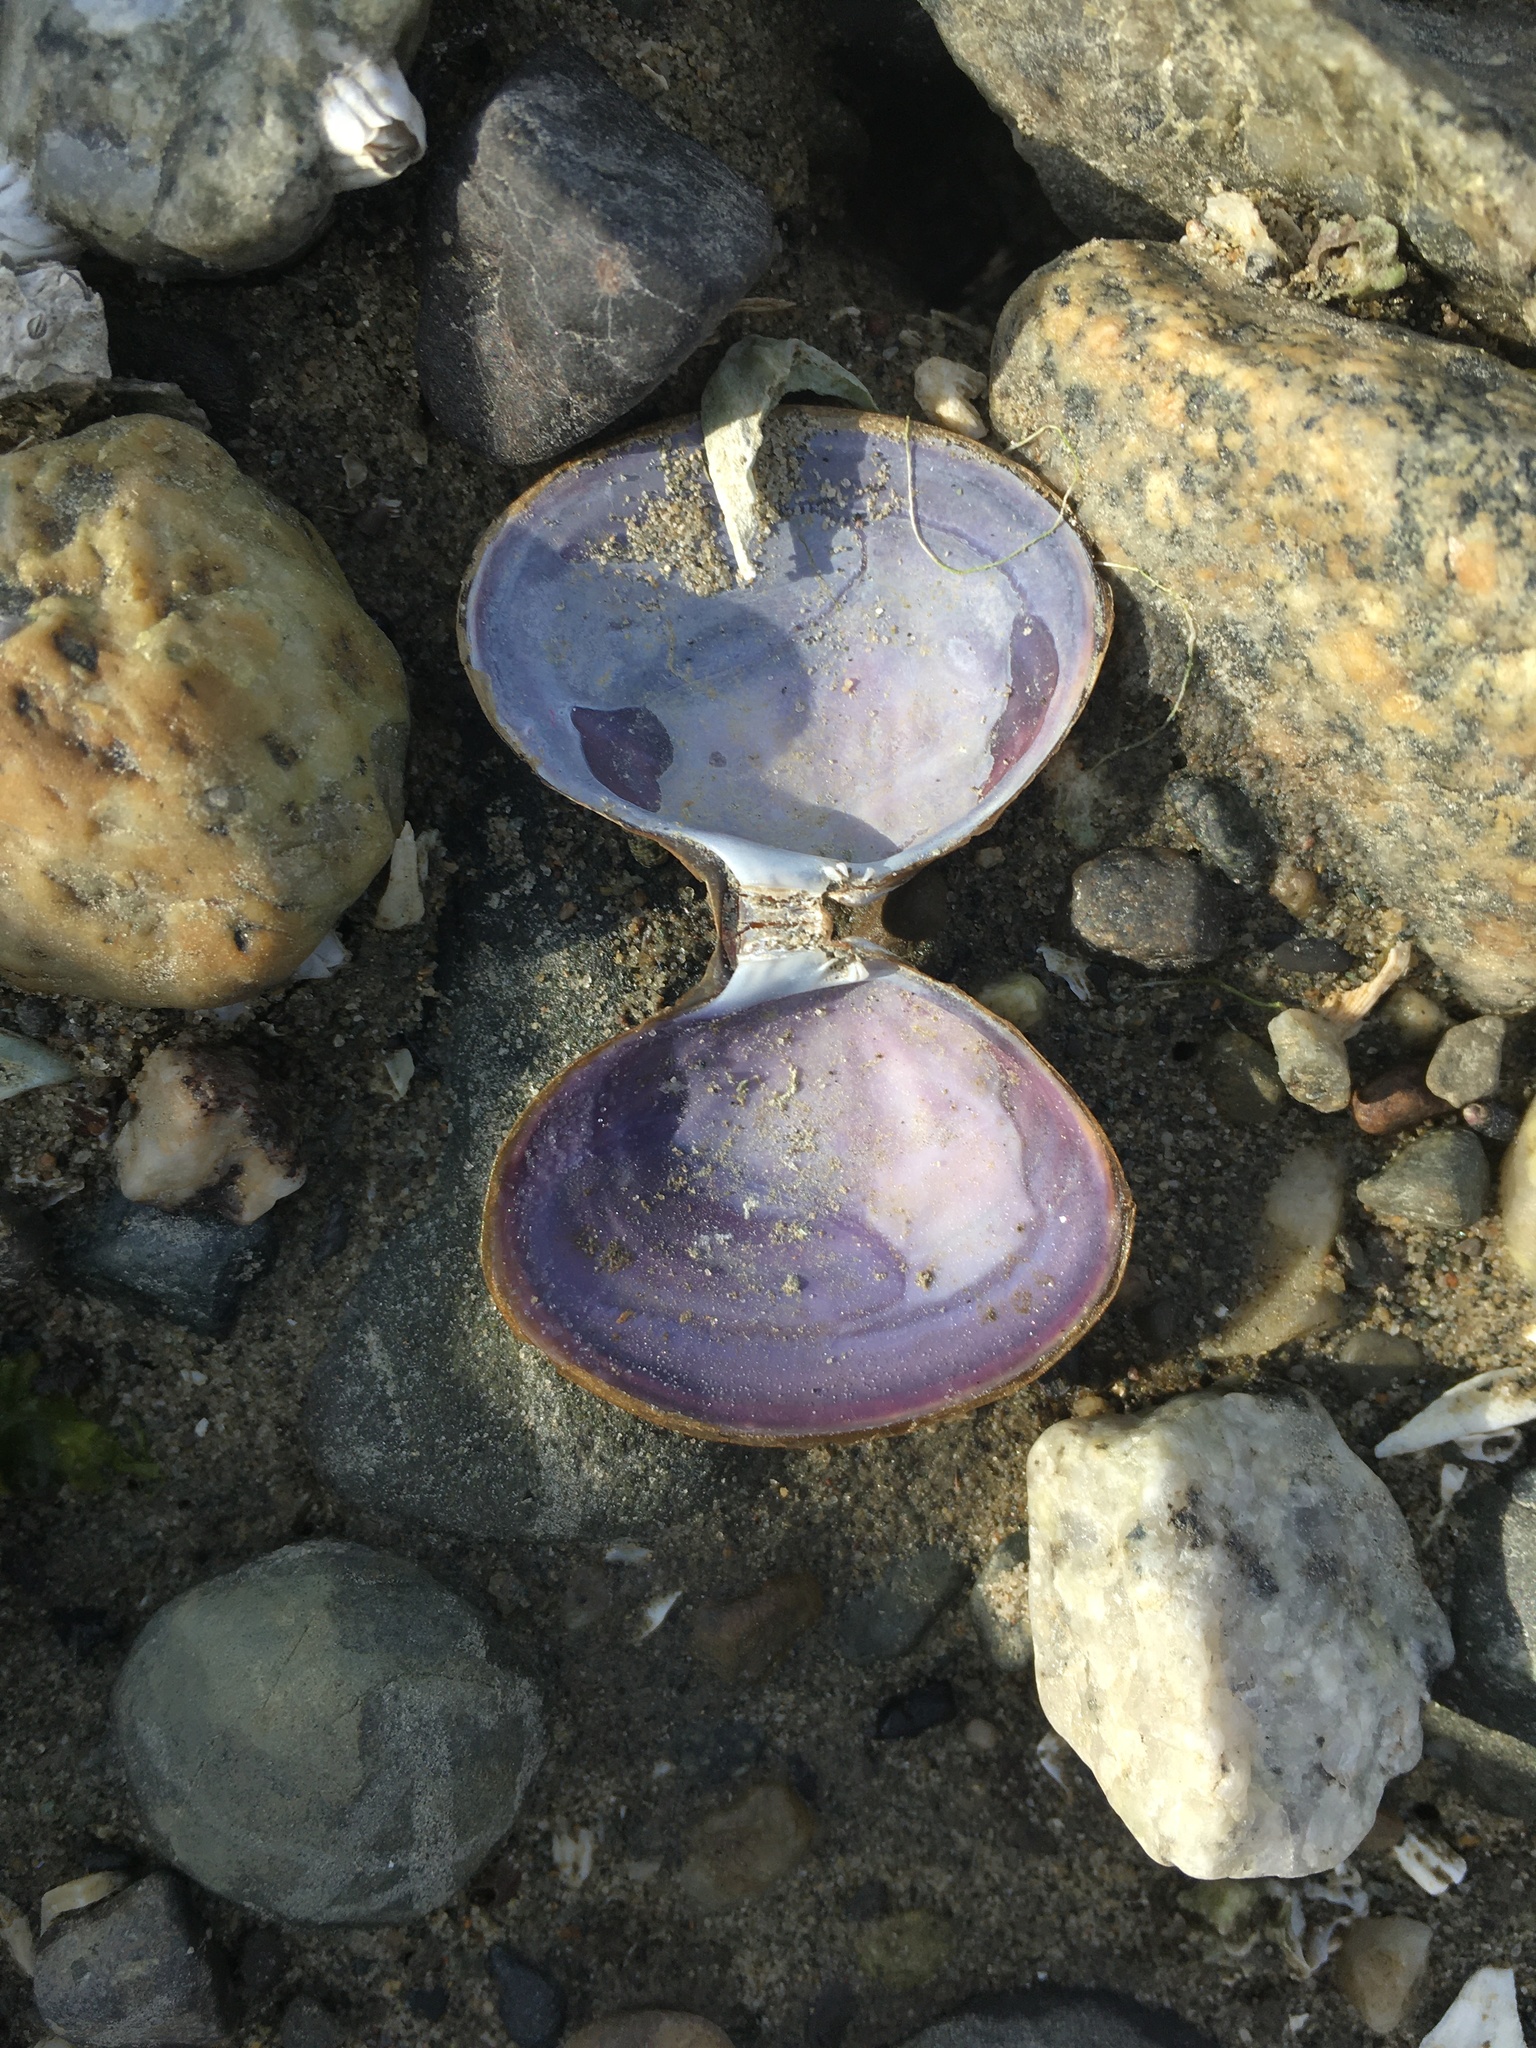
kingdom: Animalia
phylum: Mollusca
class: Bivalvia
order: Cardiida
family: Psammobiidae
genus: Nuttallia
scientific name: Nuttallia obscurata
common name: Purple mahogany-clam
